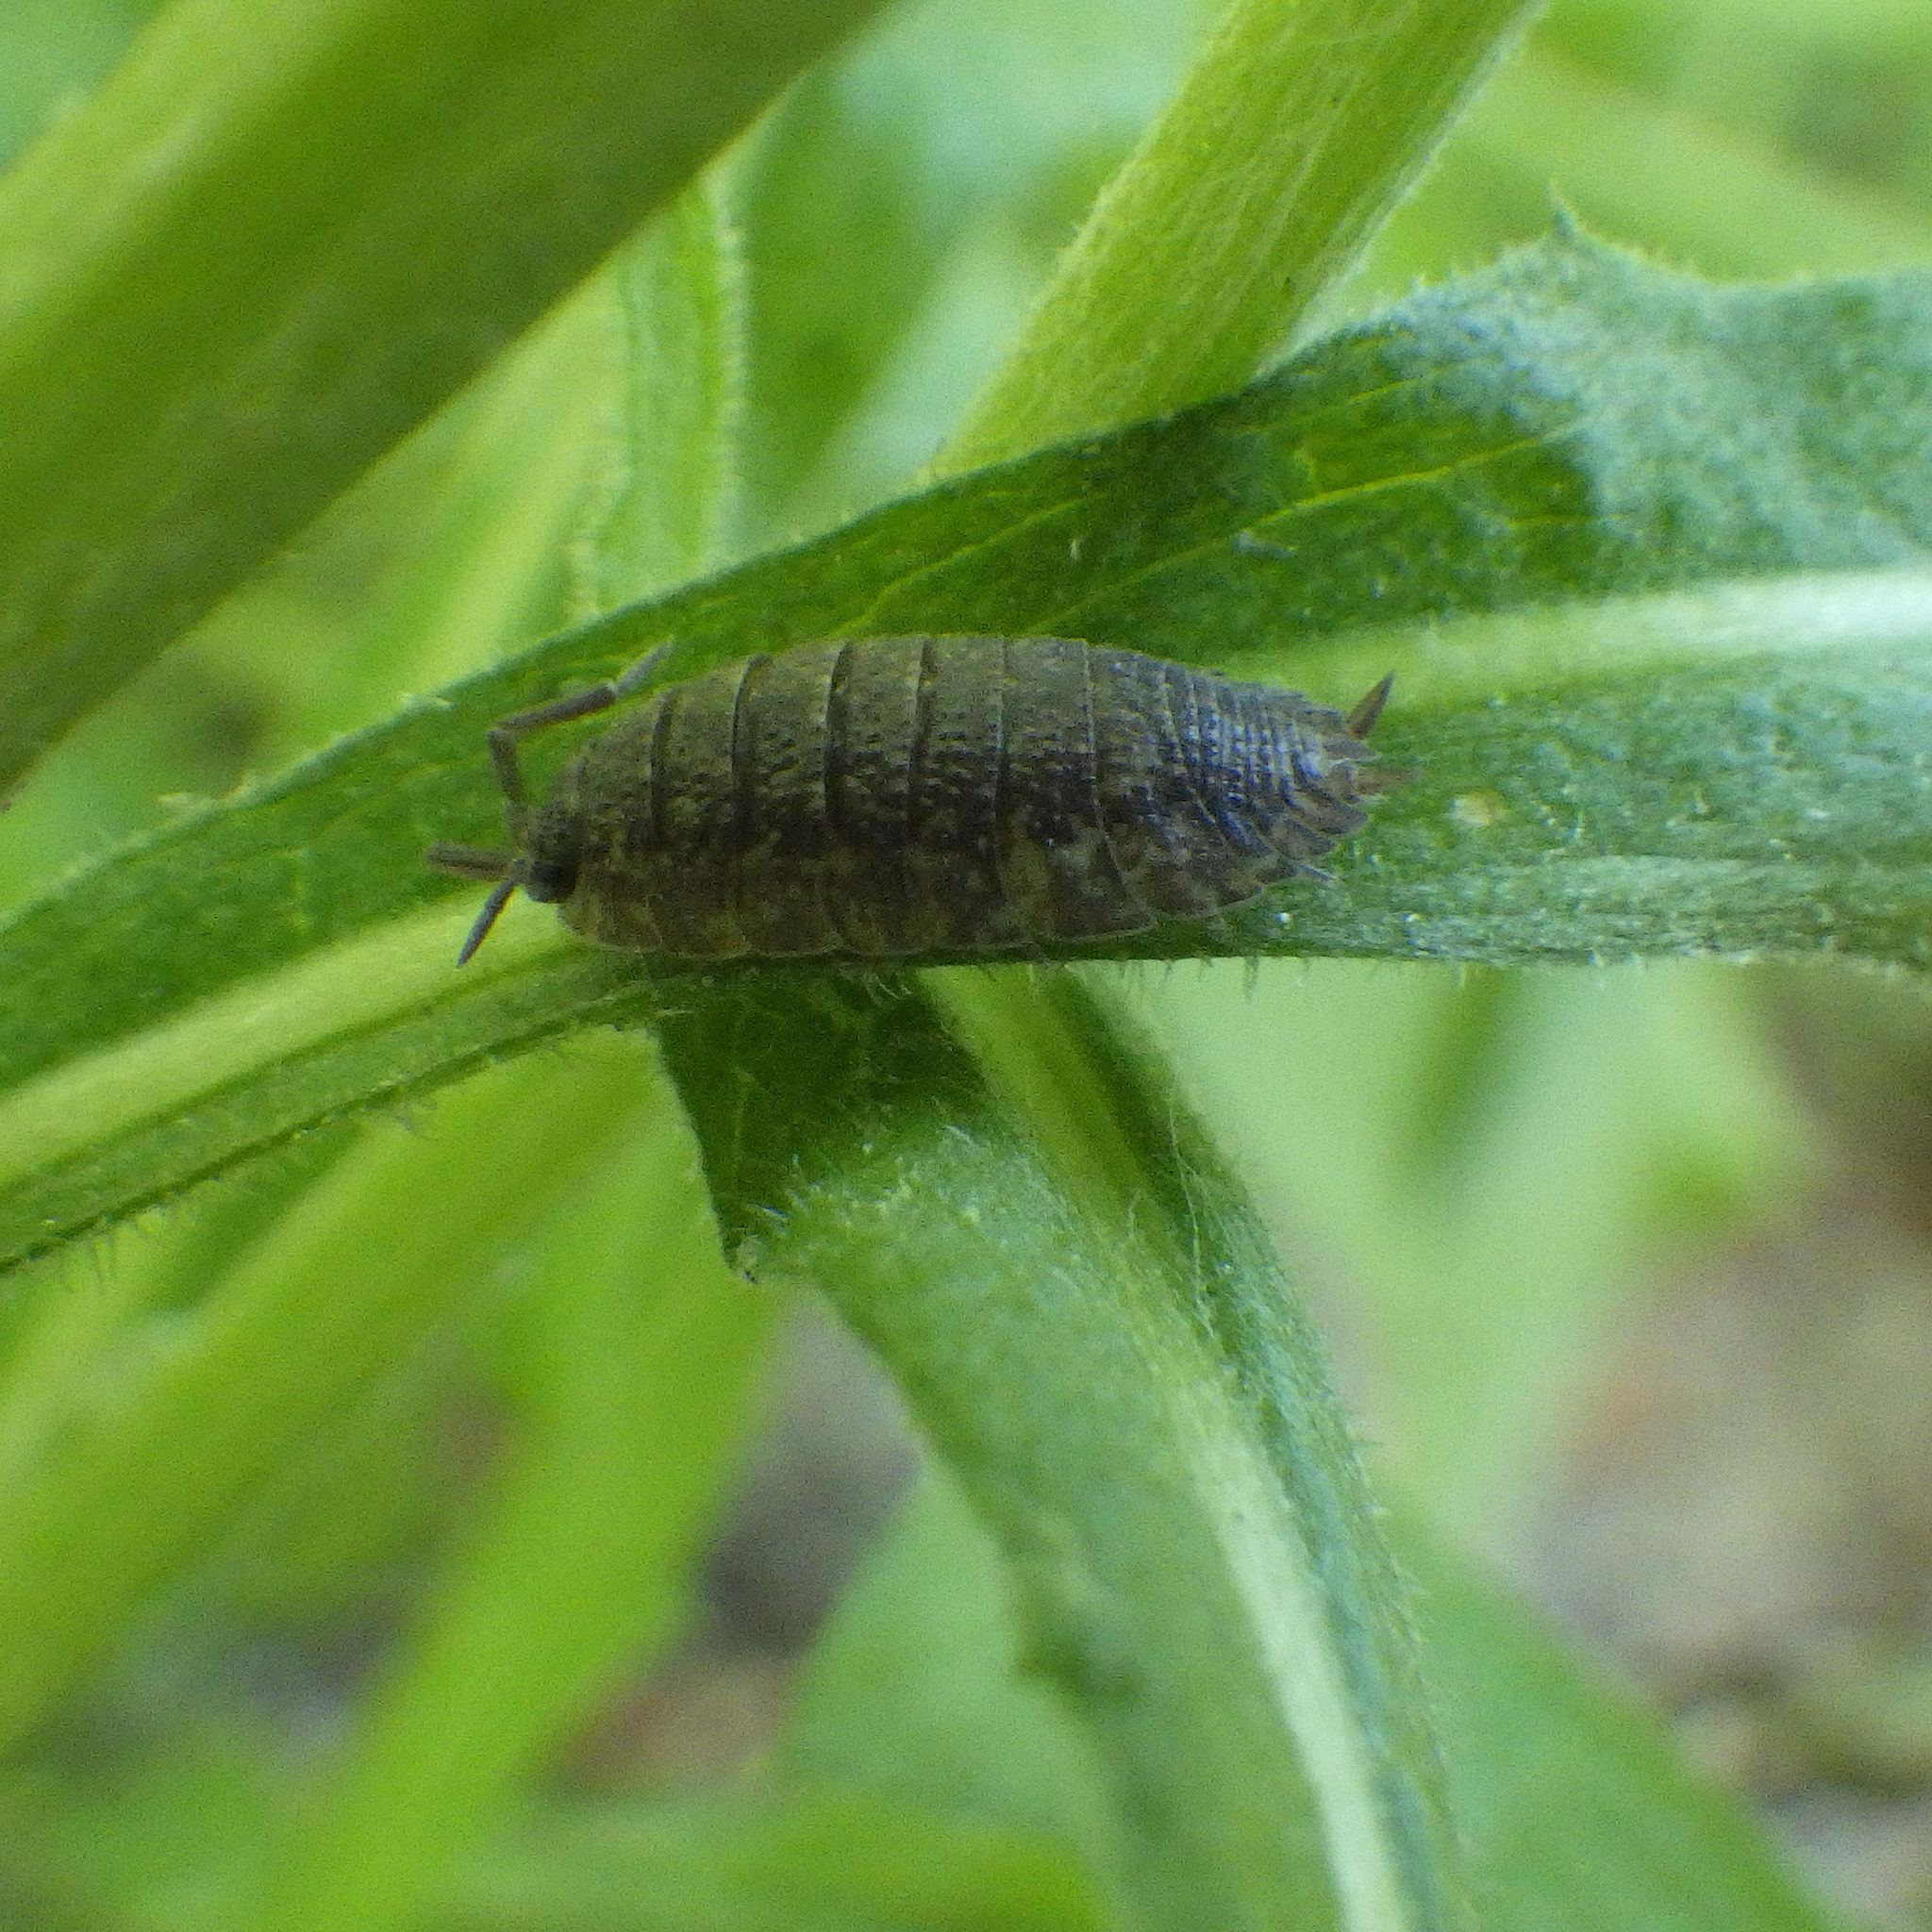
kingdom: Animalia
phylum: Arthropoda
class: Malacostraca
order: Isopoda
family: Porcellionidae
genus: Porcellio
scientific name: Porcellio scaber
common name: Common rough woodlouse
